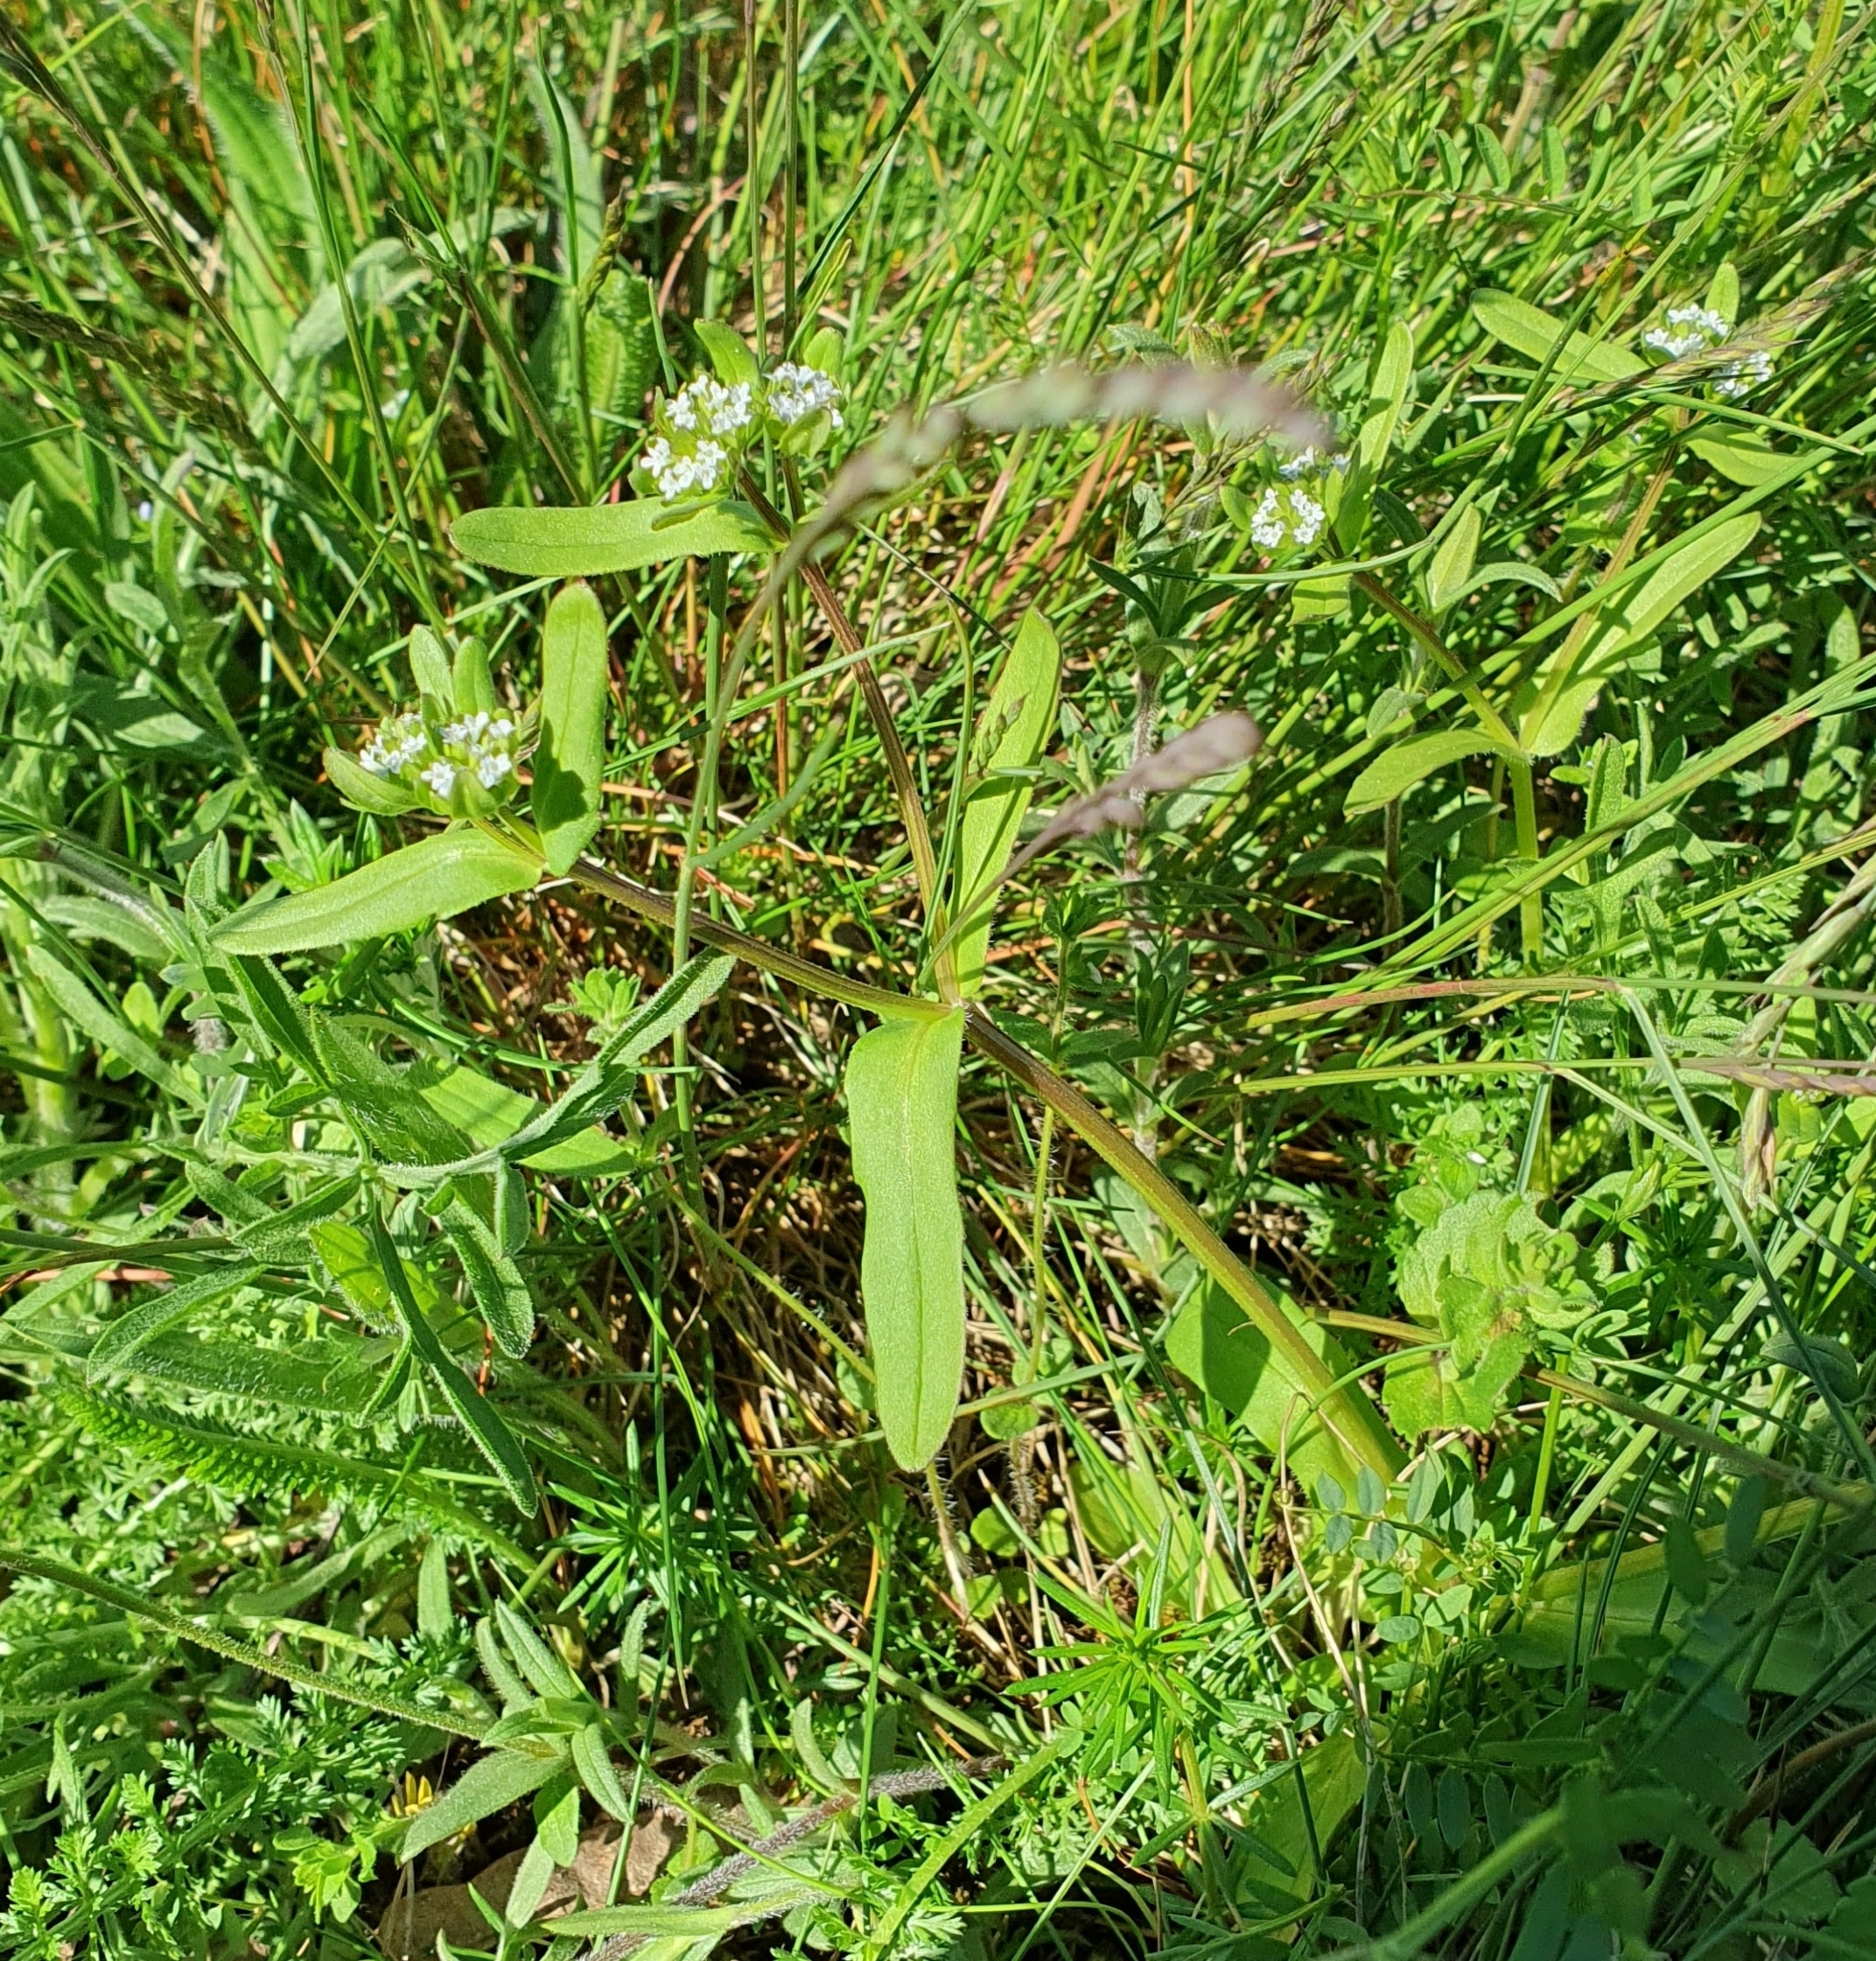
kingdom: Plantae
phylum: Tracheophyta
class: Magnoliopsida
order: Dipsacales
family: Caprifoliaceae
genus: Valerianella
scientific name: Valerianella locusta
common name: Common cornsalad
